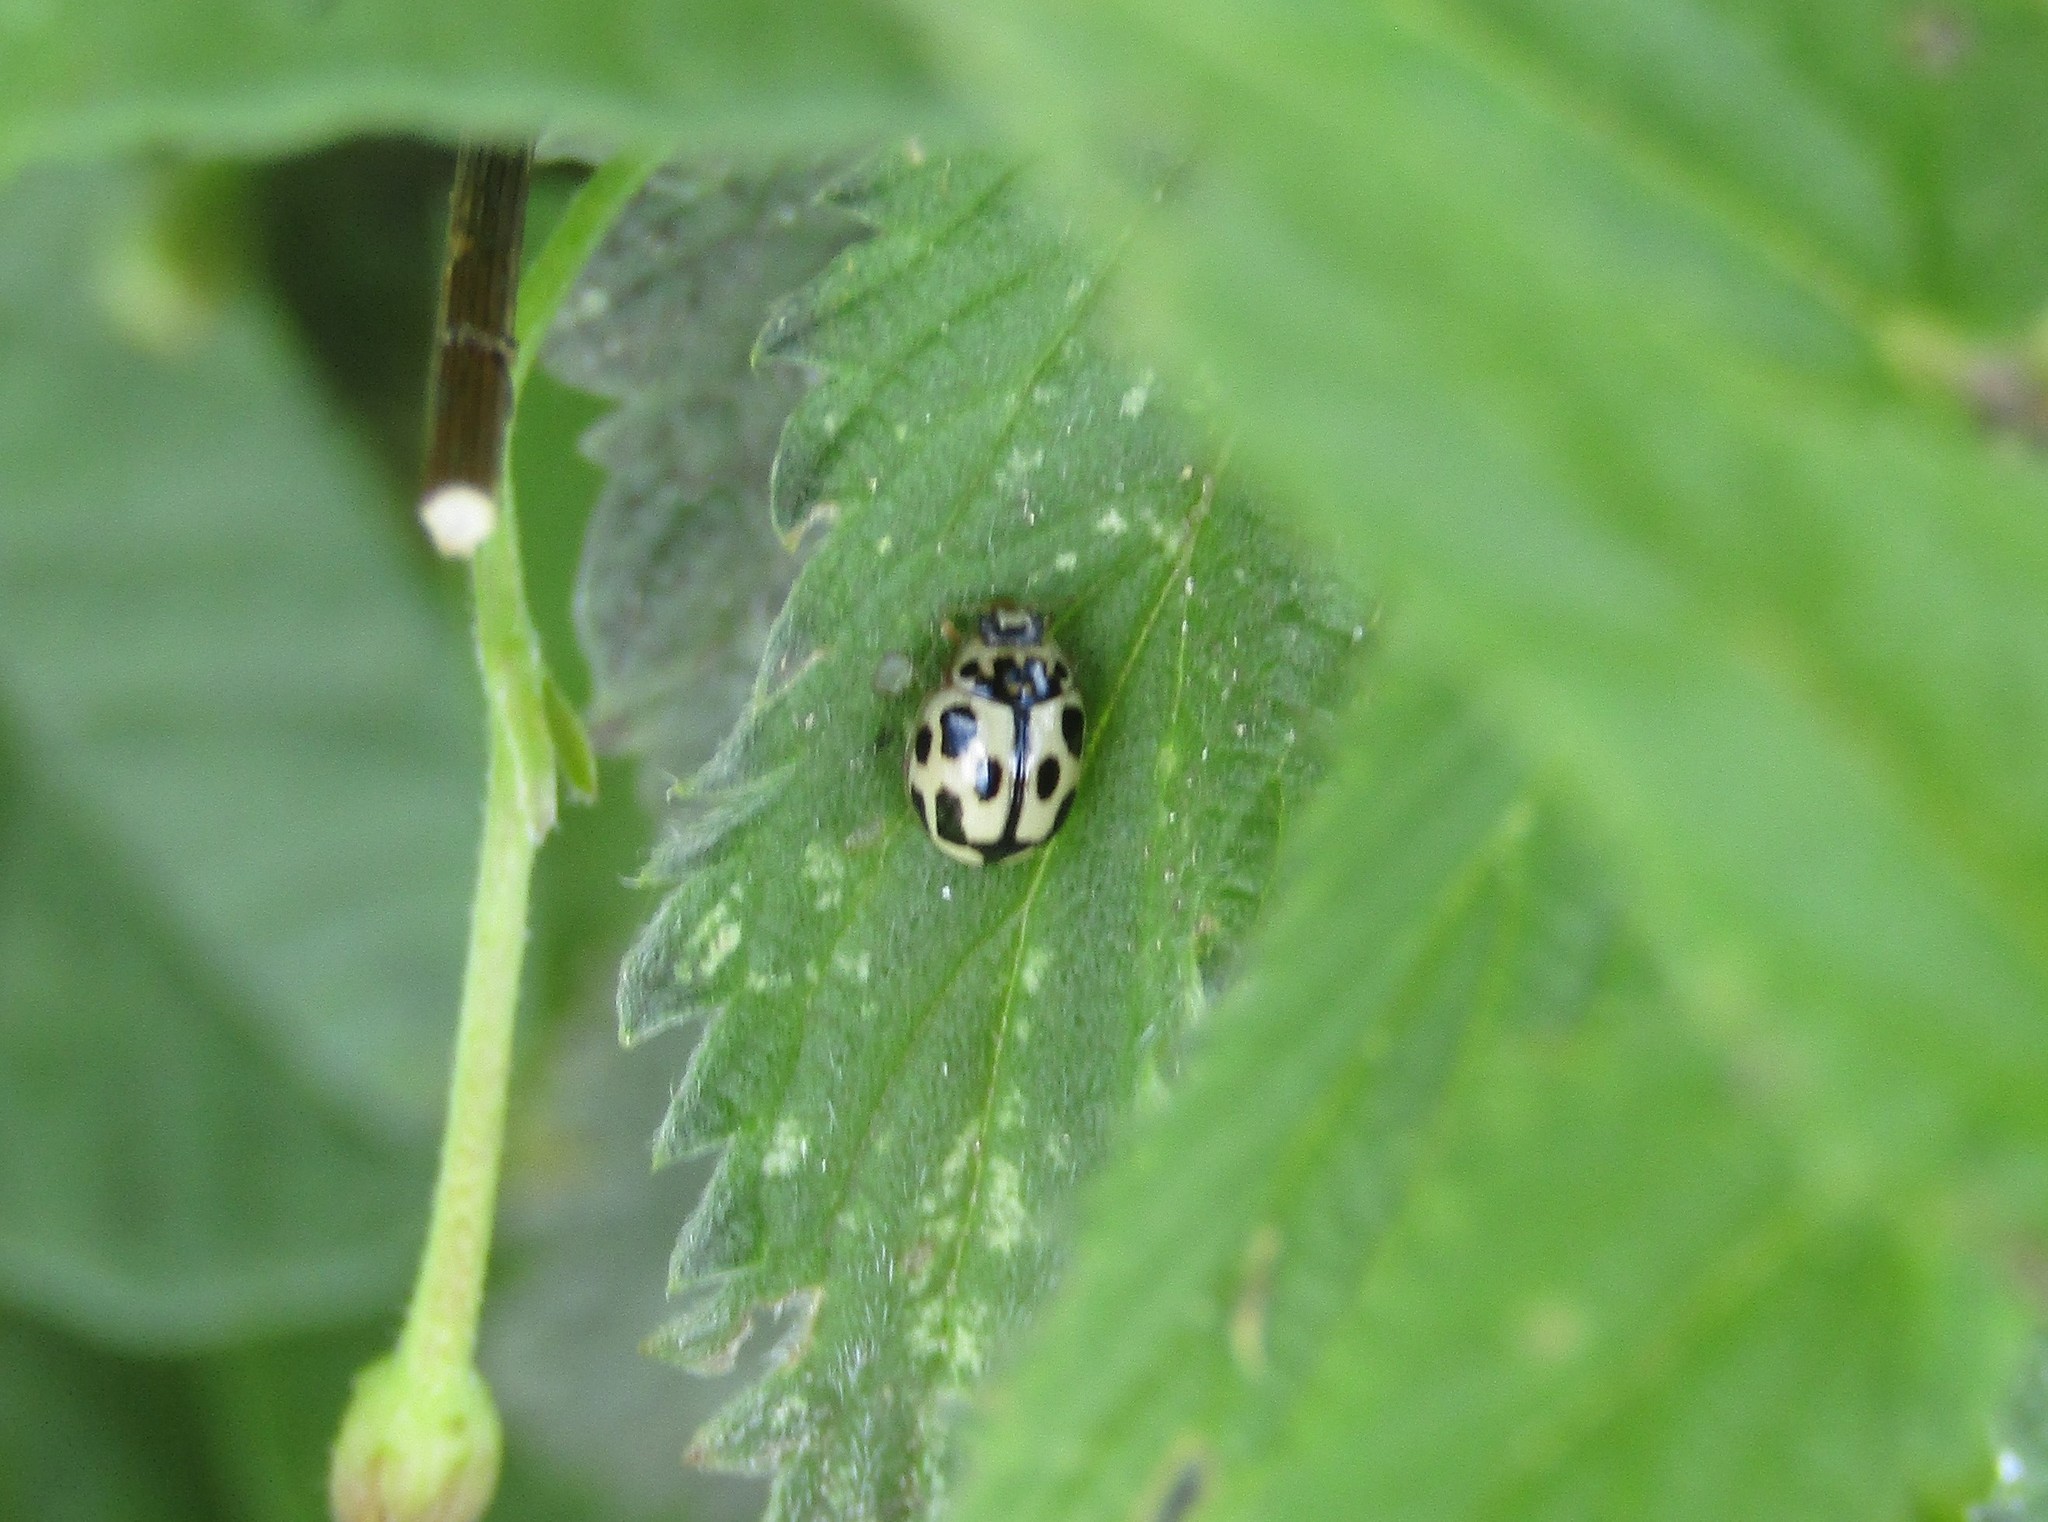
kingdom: Animalia
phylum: Arthropoda
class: Insecta
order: Coleoptera
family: Coccinellidae
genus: Propylaea
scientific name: Propylaea quatuordecimpunctata
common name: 14-spotted ladybird beetle
